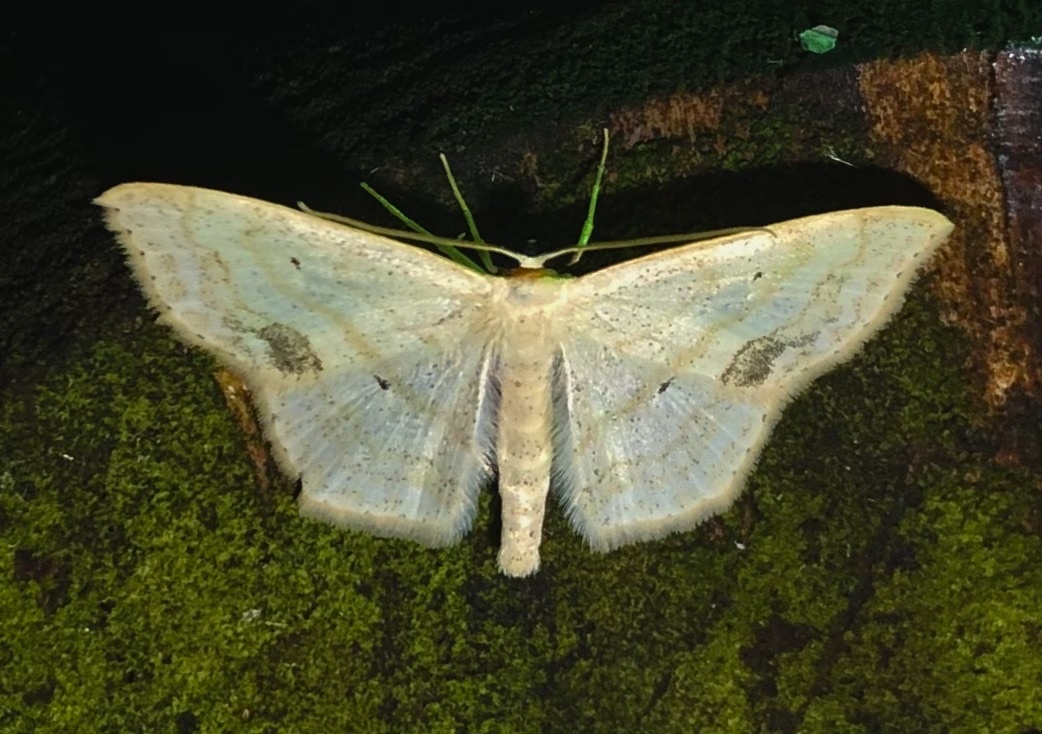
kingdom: Animalia
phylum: Arthropoda
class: Insecta
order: Lepidoptera
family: Geometridae
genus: Scopula
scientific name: Scopula limboundata
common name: Large lace border
